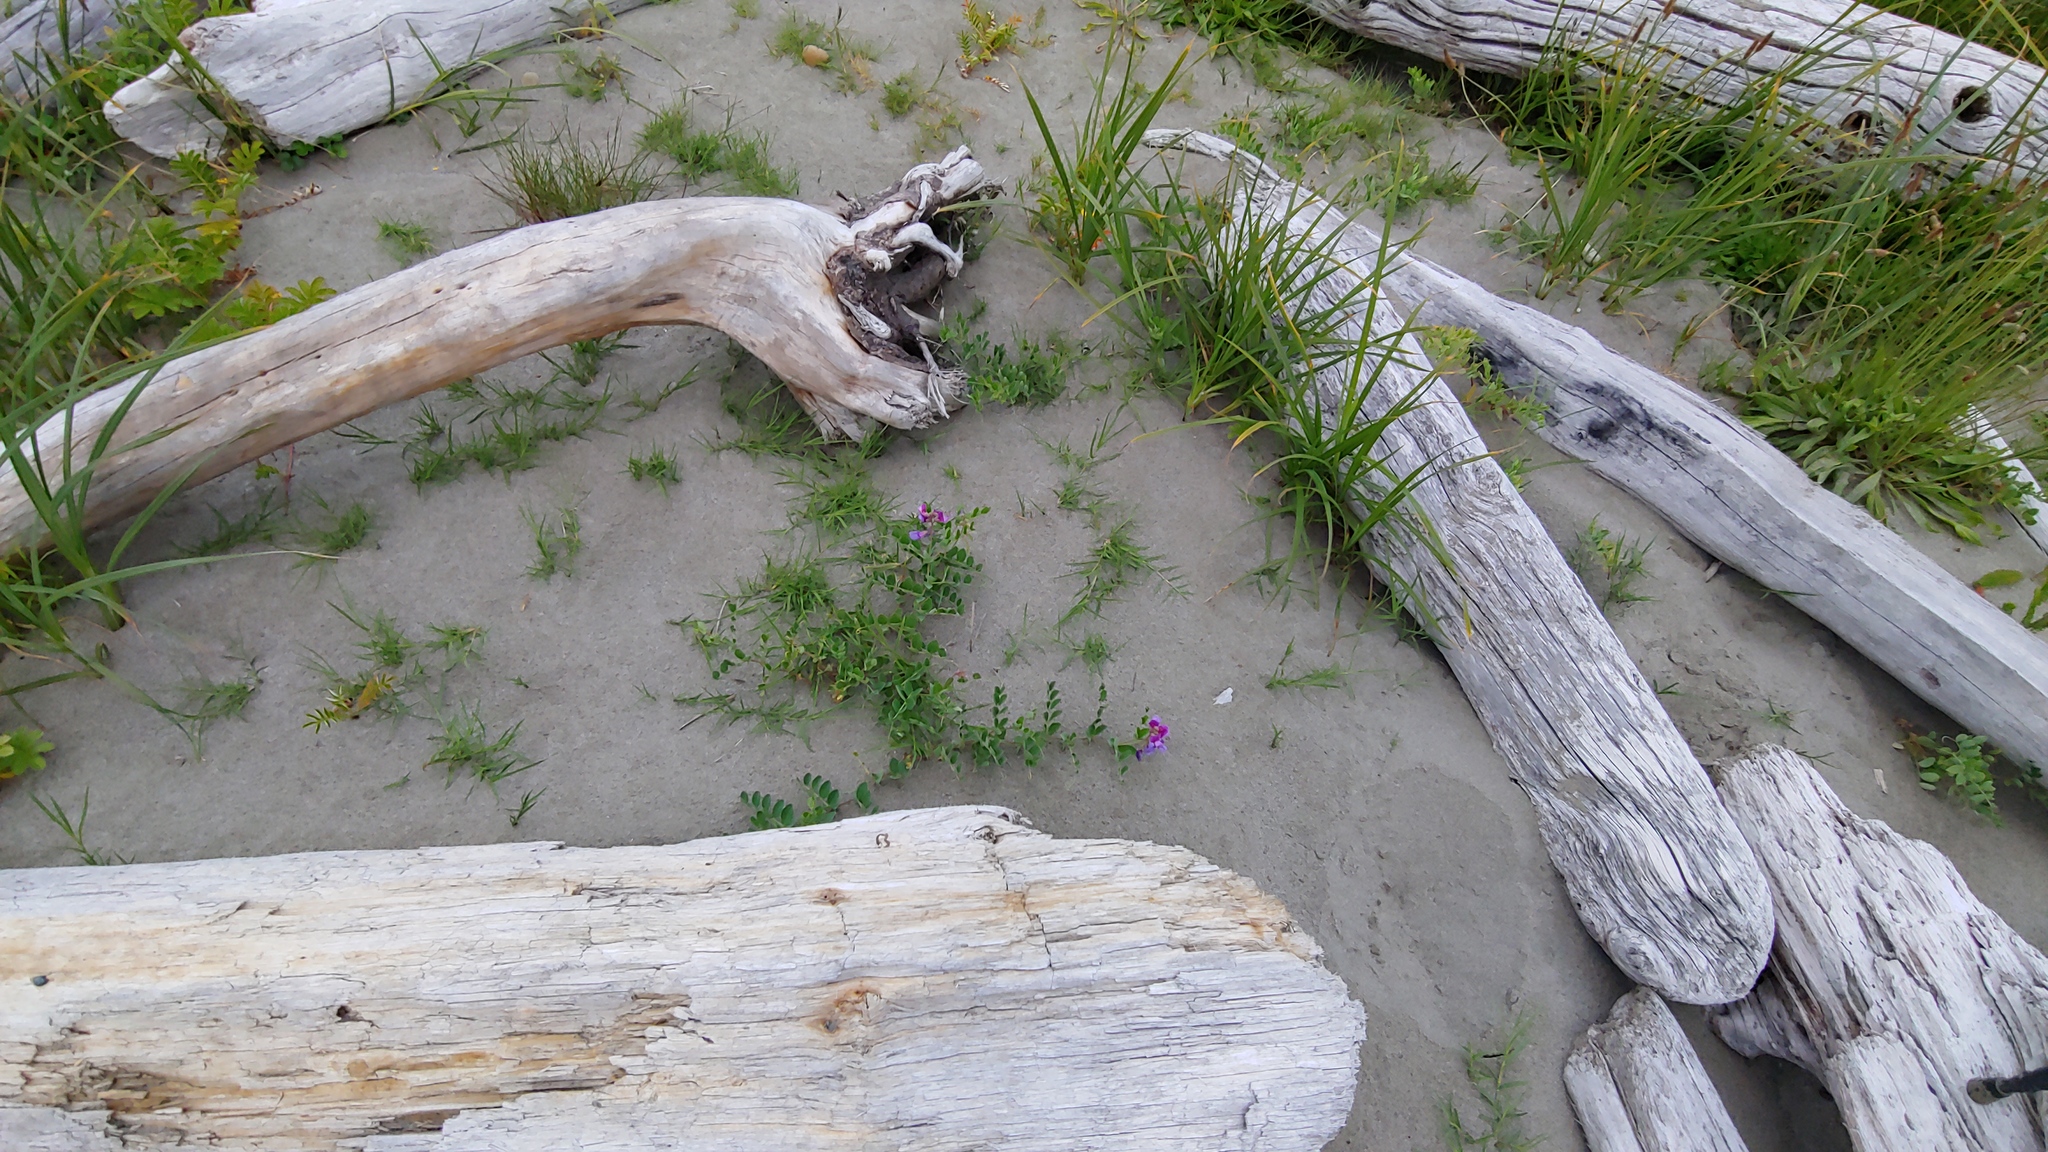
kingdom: Plantae
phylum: Tracheophyta
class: Magnoliopsida
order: Fabales
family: Fabaceae
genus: Lathyrus
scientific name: Lathyrus japonicus
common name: Sea pea
